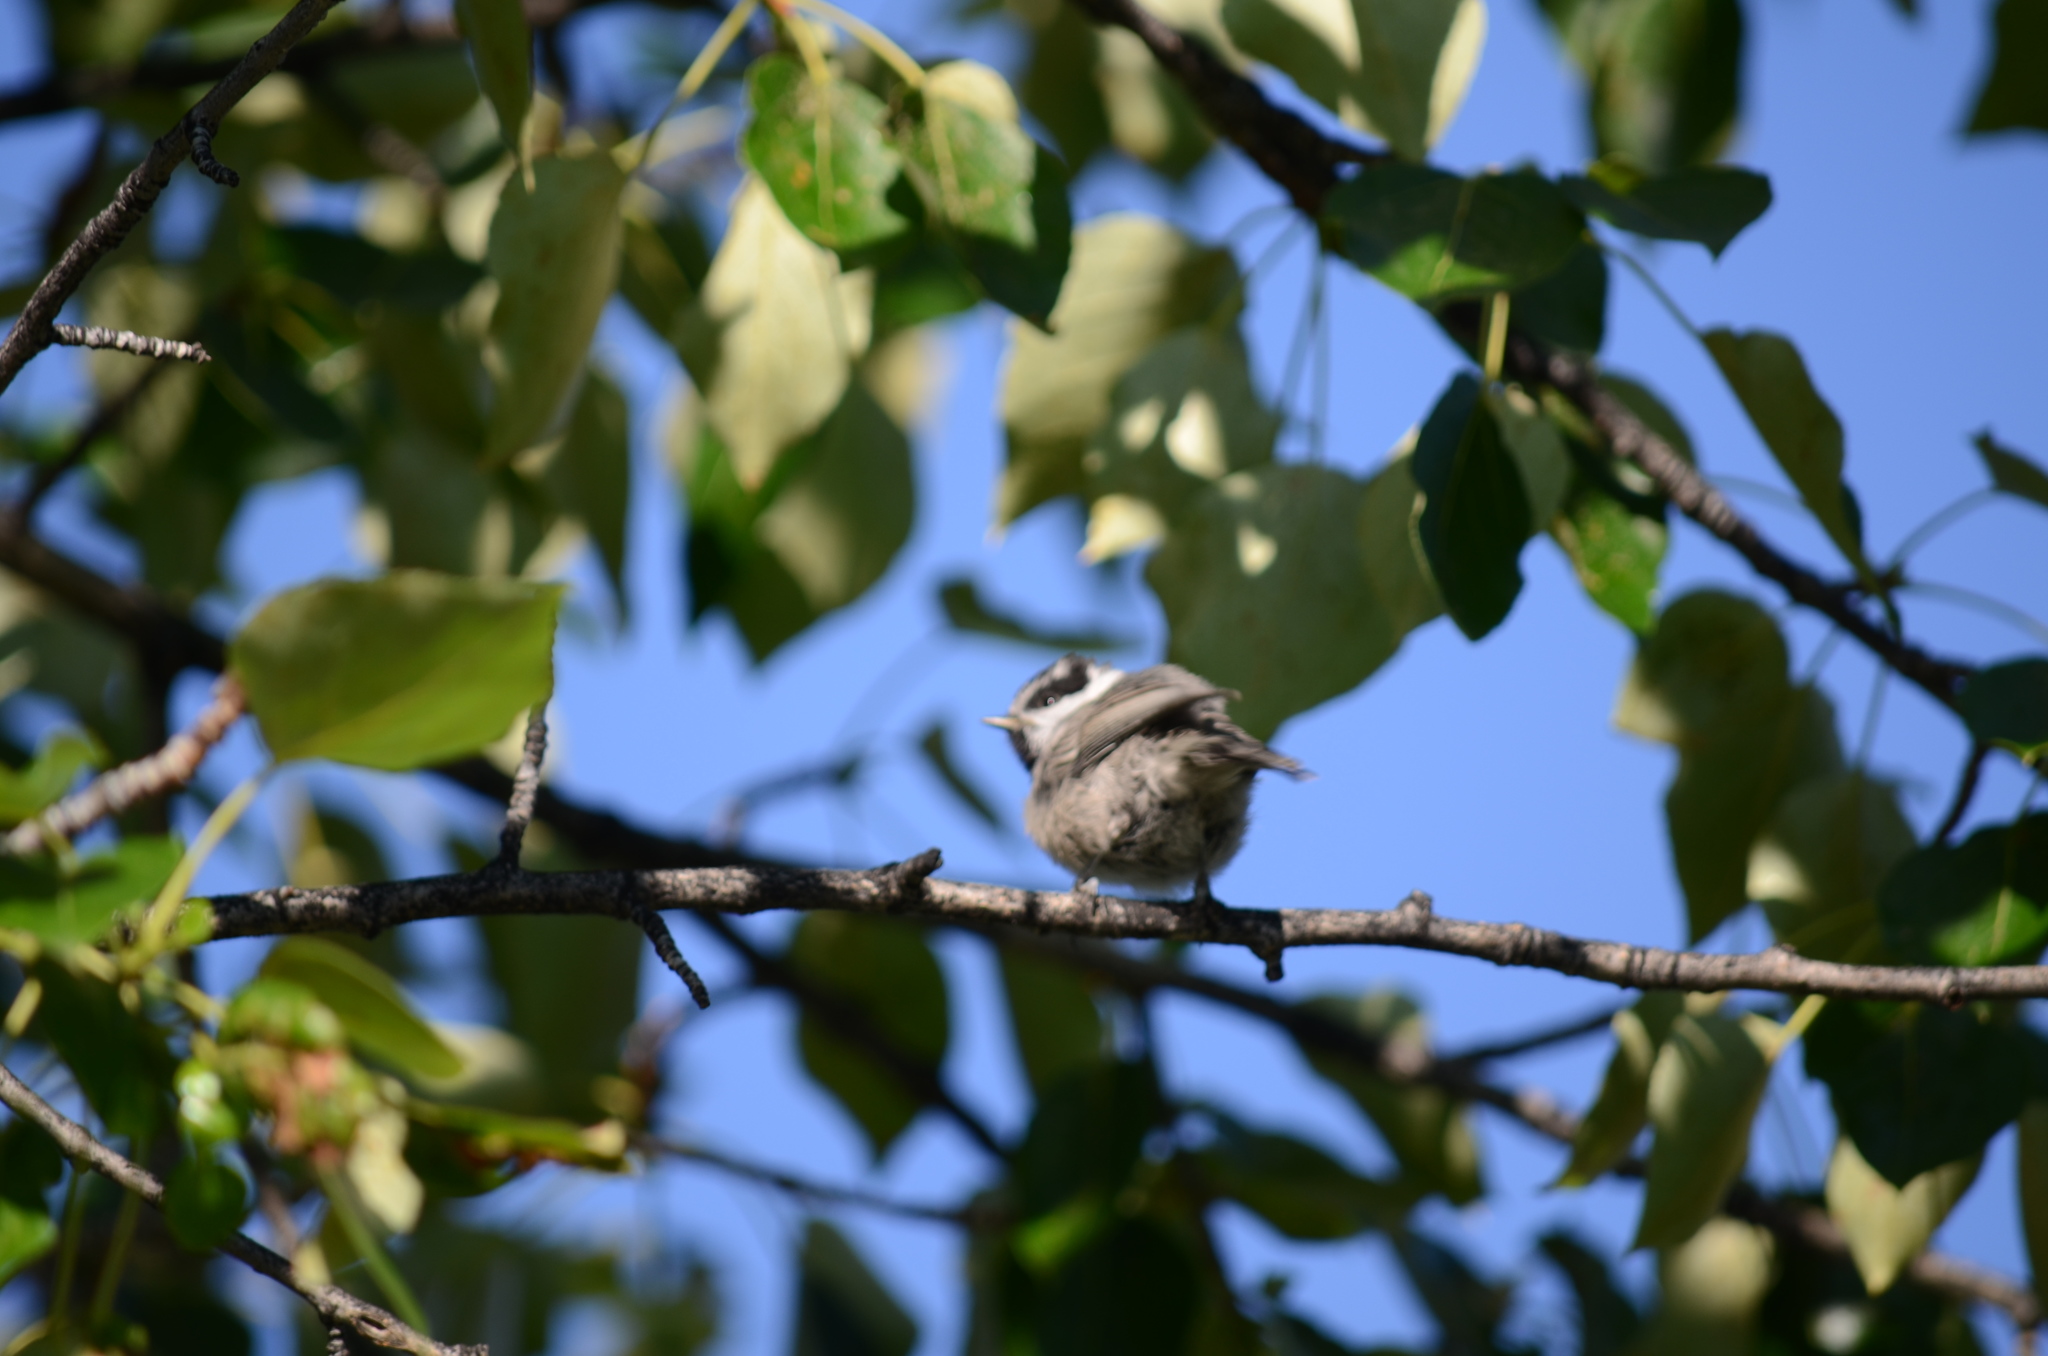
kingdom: Animalia
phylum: Chordata
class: Aves
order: Passeriformes
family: Paridae
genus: Poecile
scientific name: Poecile gambeli
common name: Mountain chickadee
